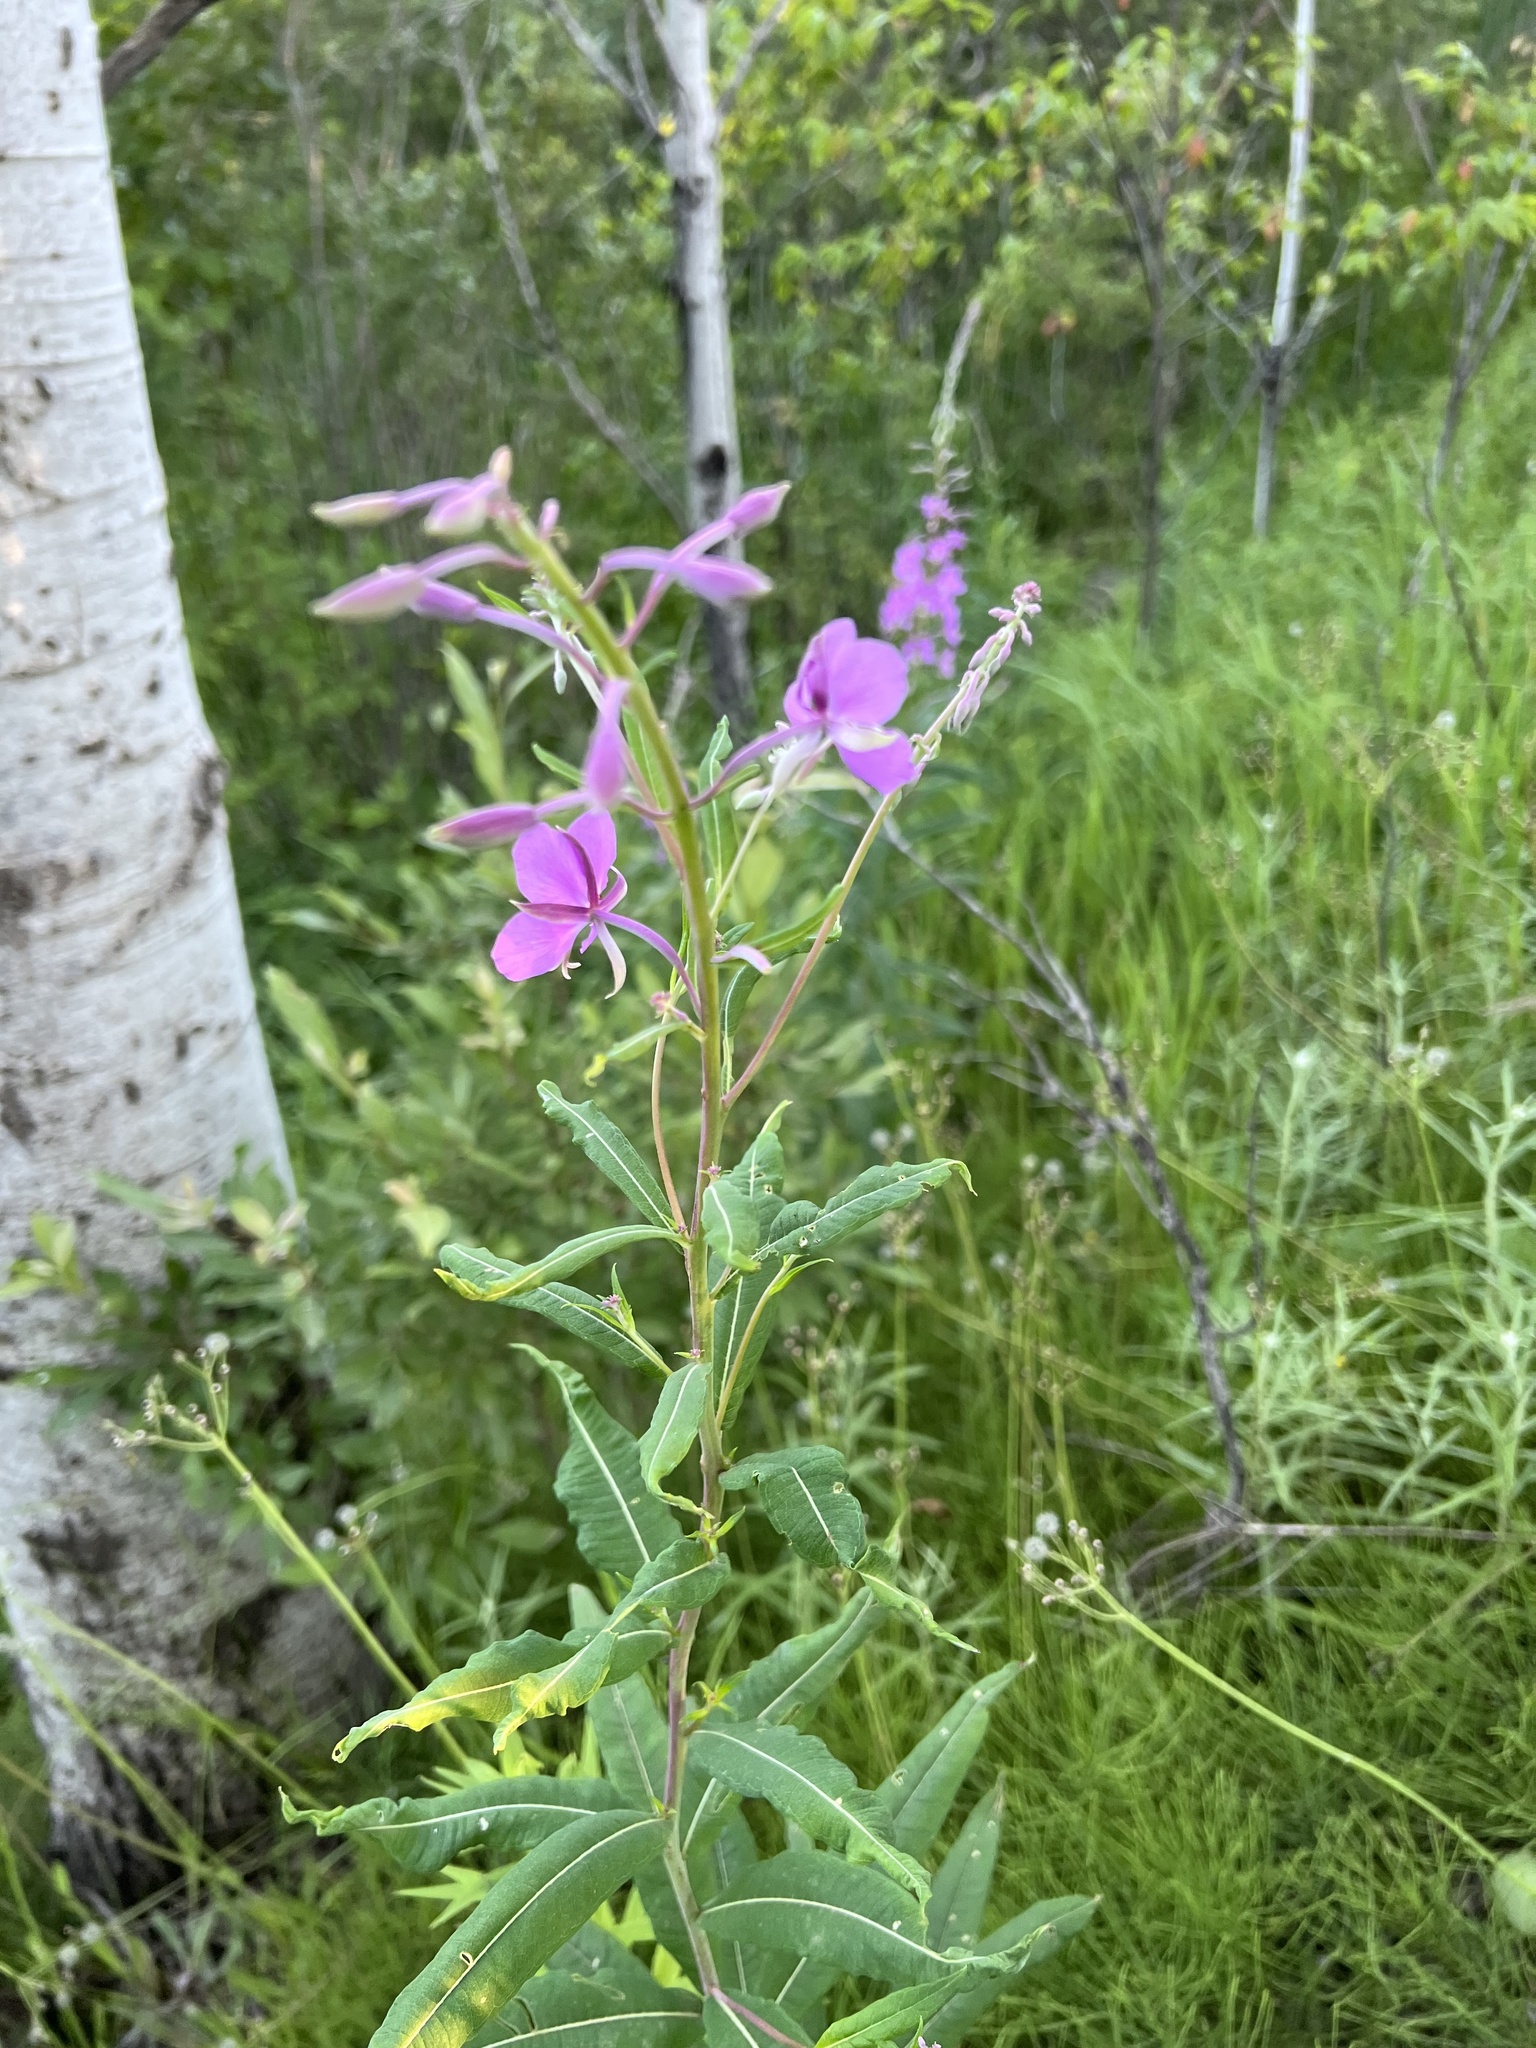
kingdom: Plantae
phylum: Tracheophyta
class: Magnoliopsida
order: Myrtales
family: Onagraceae
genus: Chamaenerion
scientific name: Chamaenerion angustifolium
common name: Fireweed
